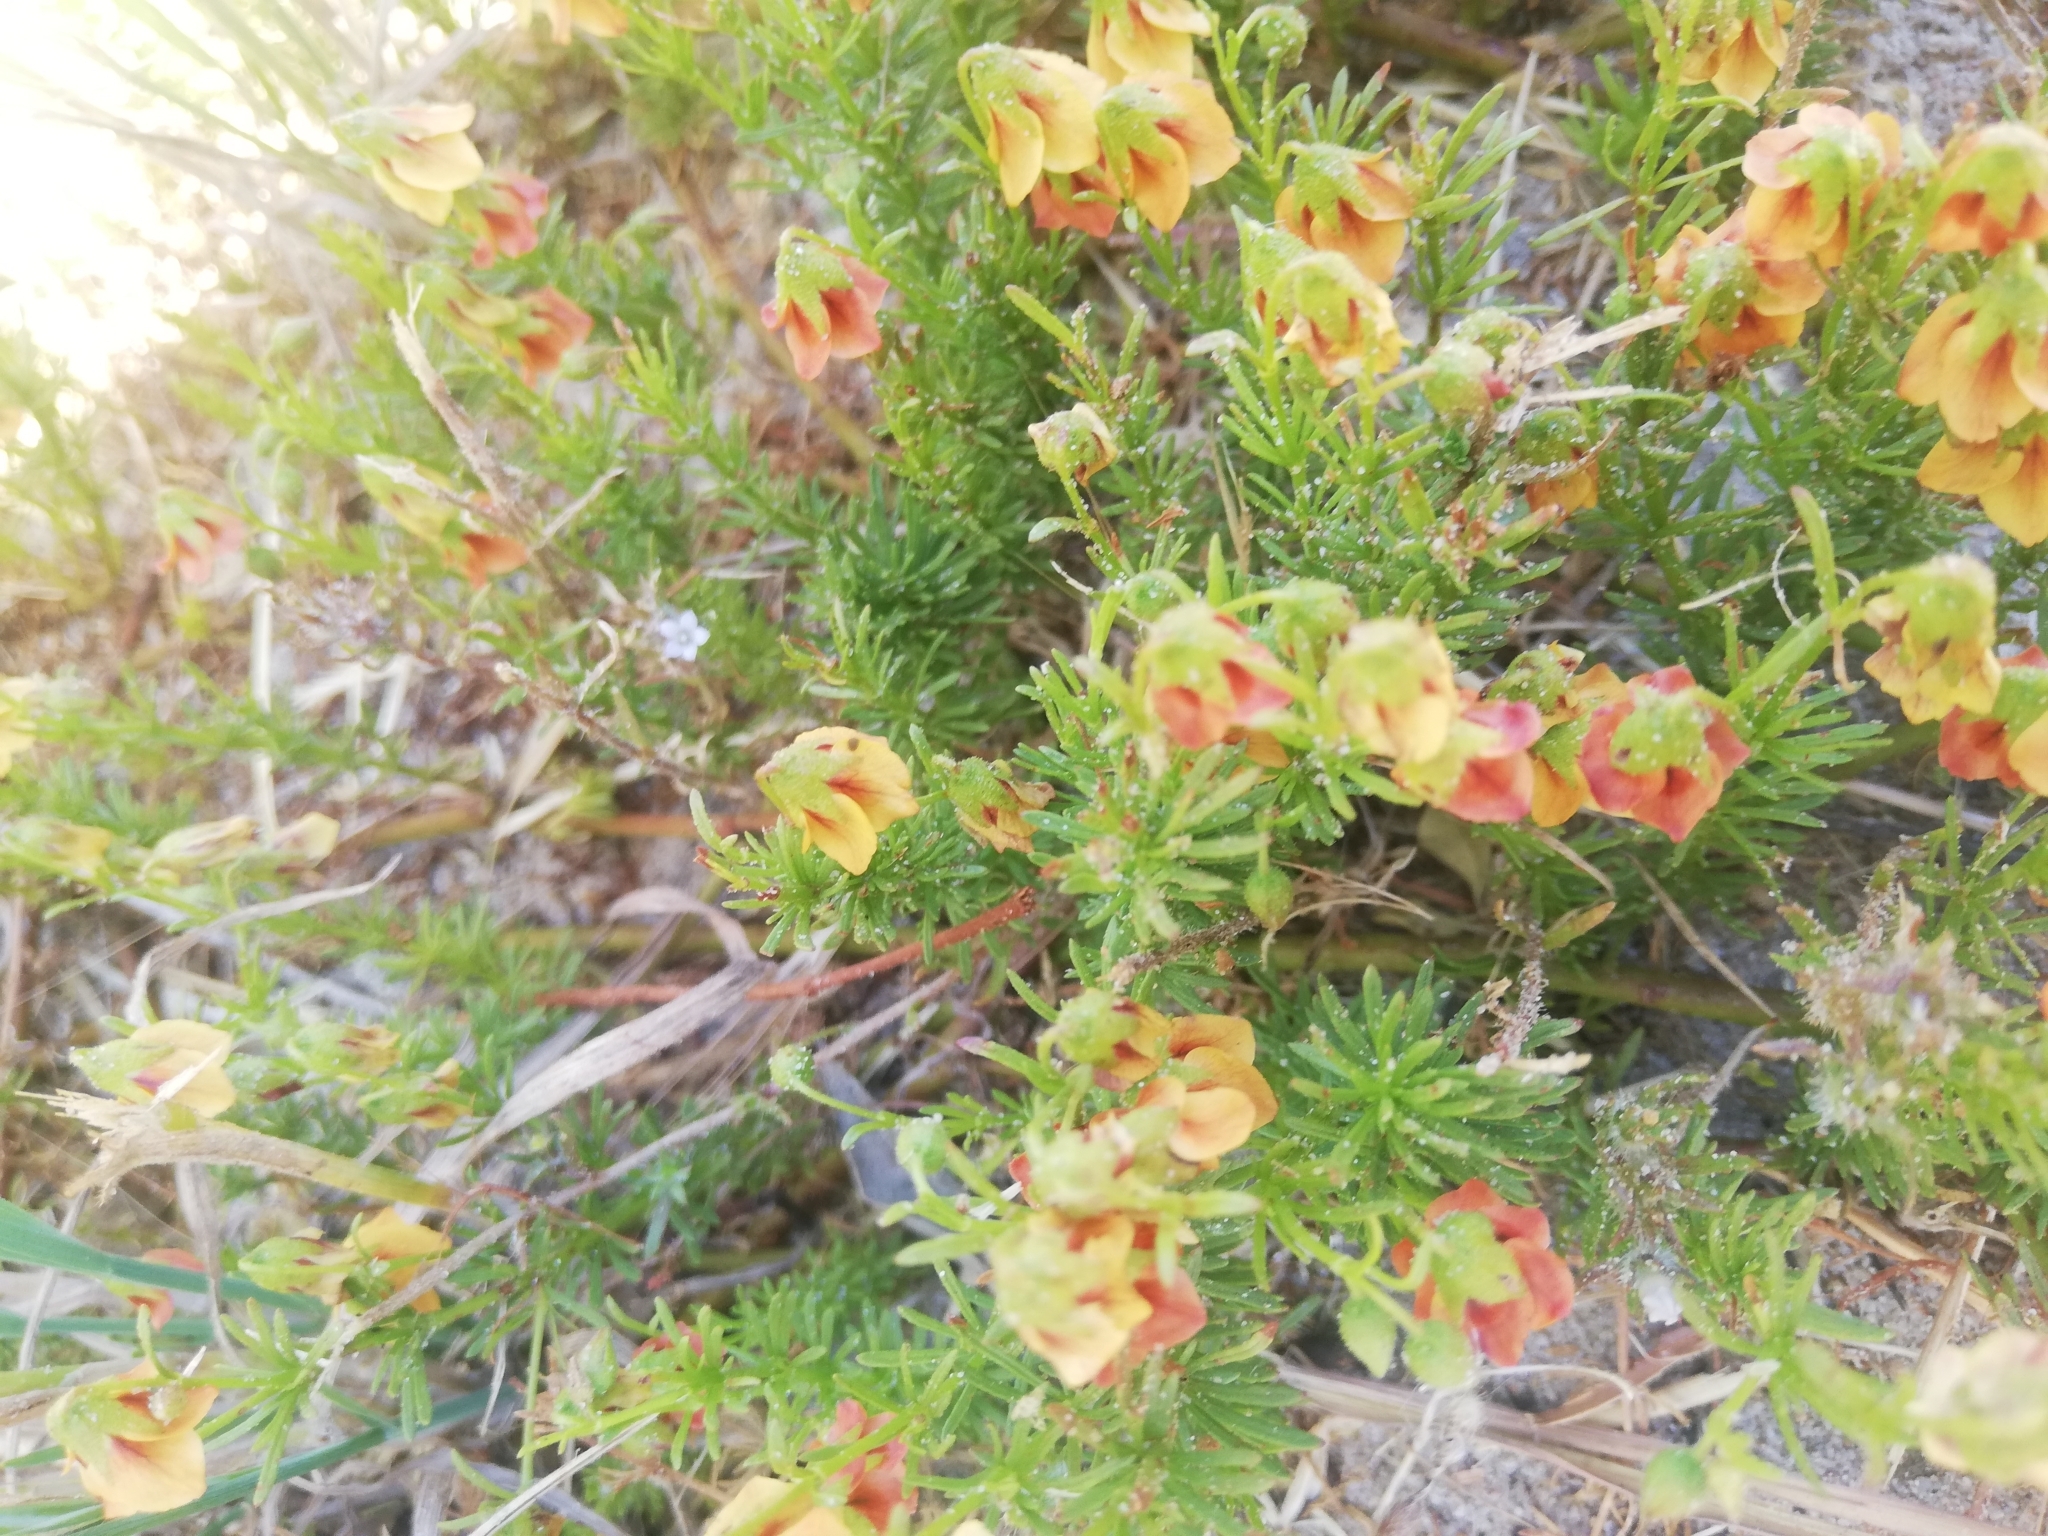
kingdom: Plantae
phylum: Tracheophyta
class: Magnoliopsida
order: Malvales
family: Malvaceae
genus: Hermannia
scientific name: Hermannia
